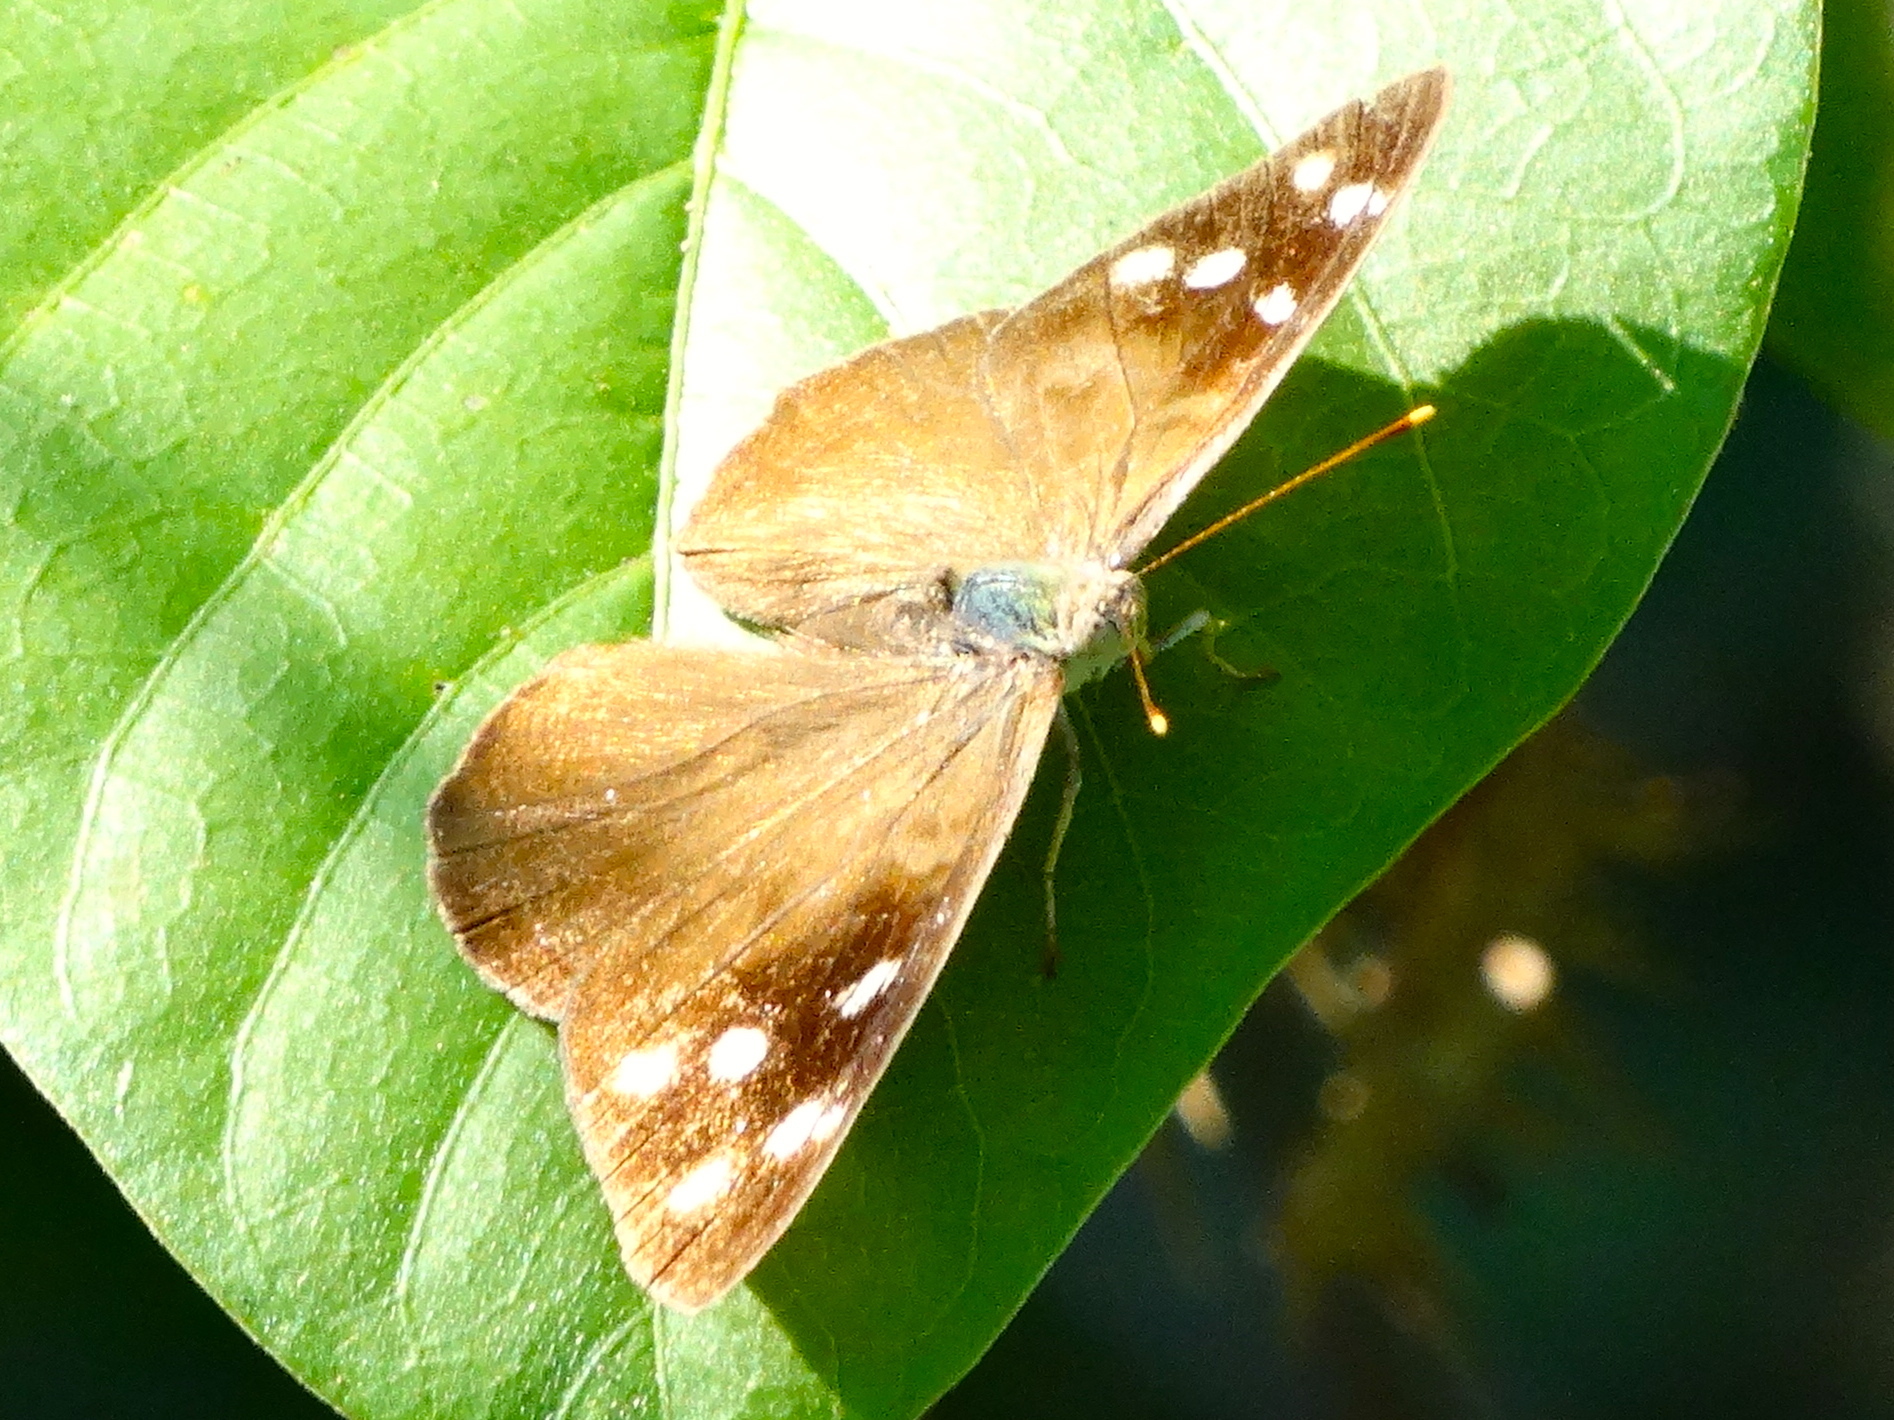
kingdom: Animalia
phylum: Arthropoda
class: Insecta
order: Lepidoptera
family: Nymphalidae
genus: Eunica
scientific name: Eunica monima
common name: Dingy purplewing
